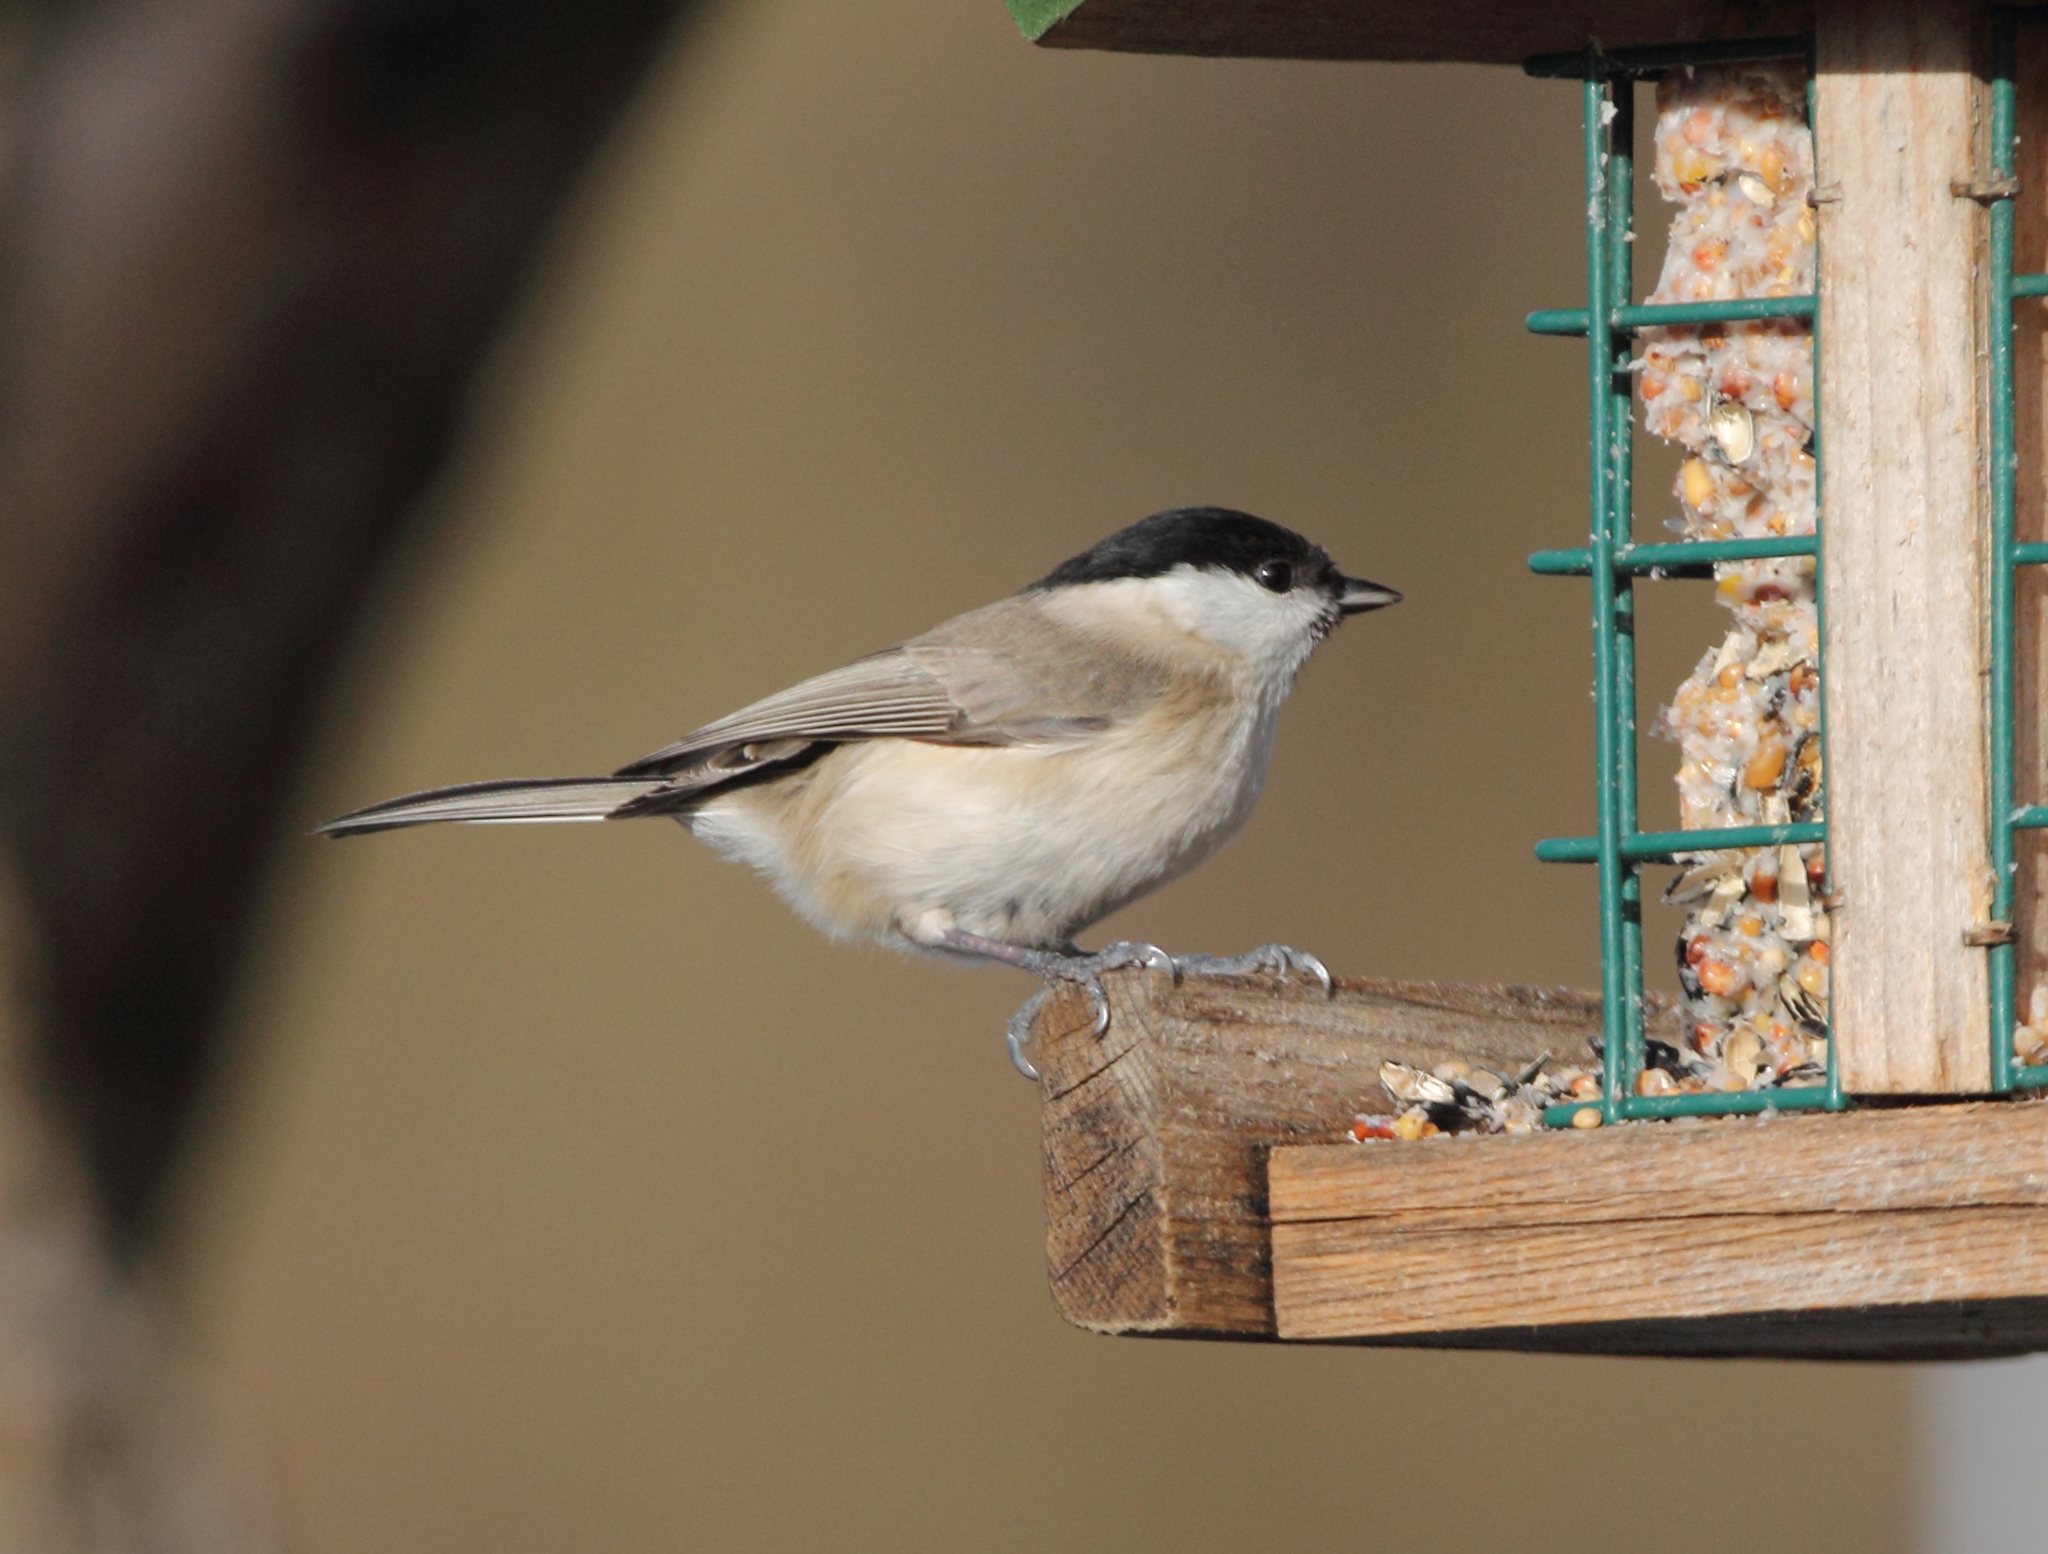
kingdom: Animalia
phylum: Chordata
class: Aves
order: Passeriformes
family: Paridae
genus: Poecile
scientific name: Poecile palustris
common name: Marsh tit
